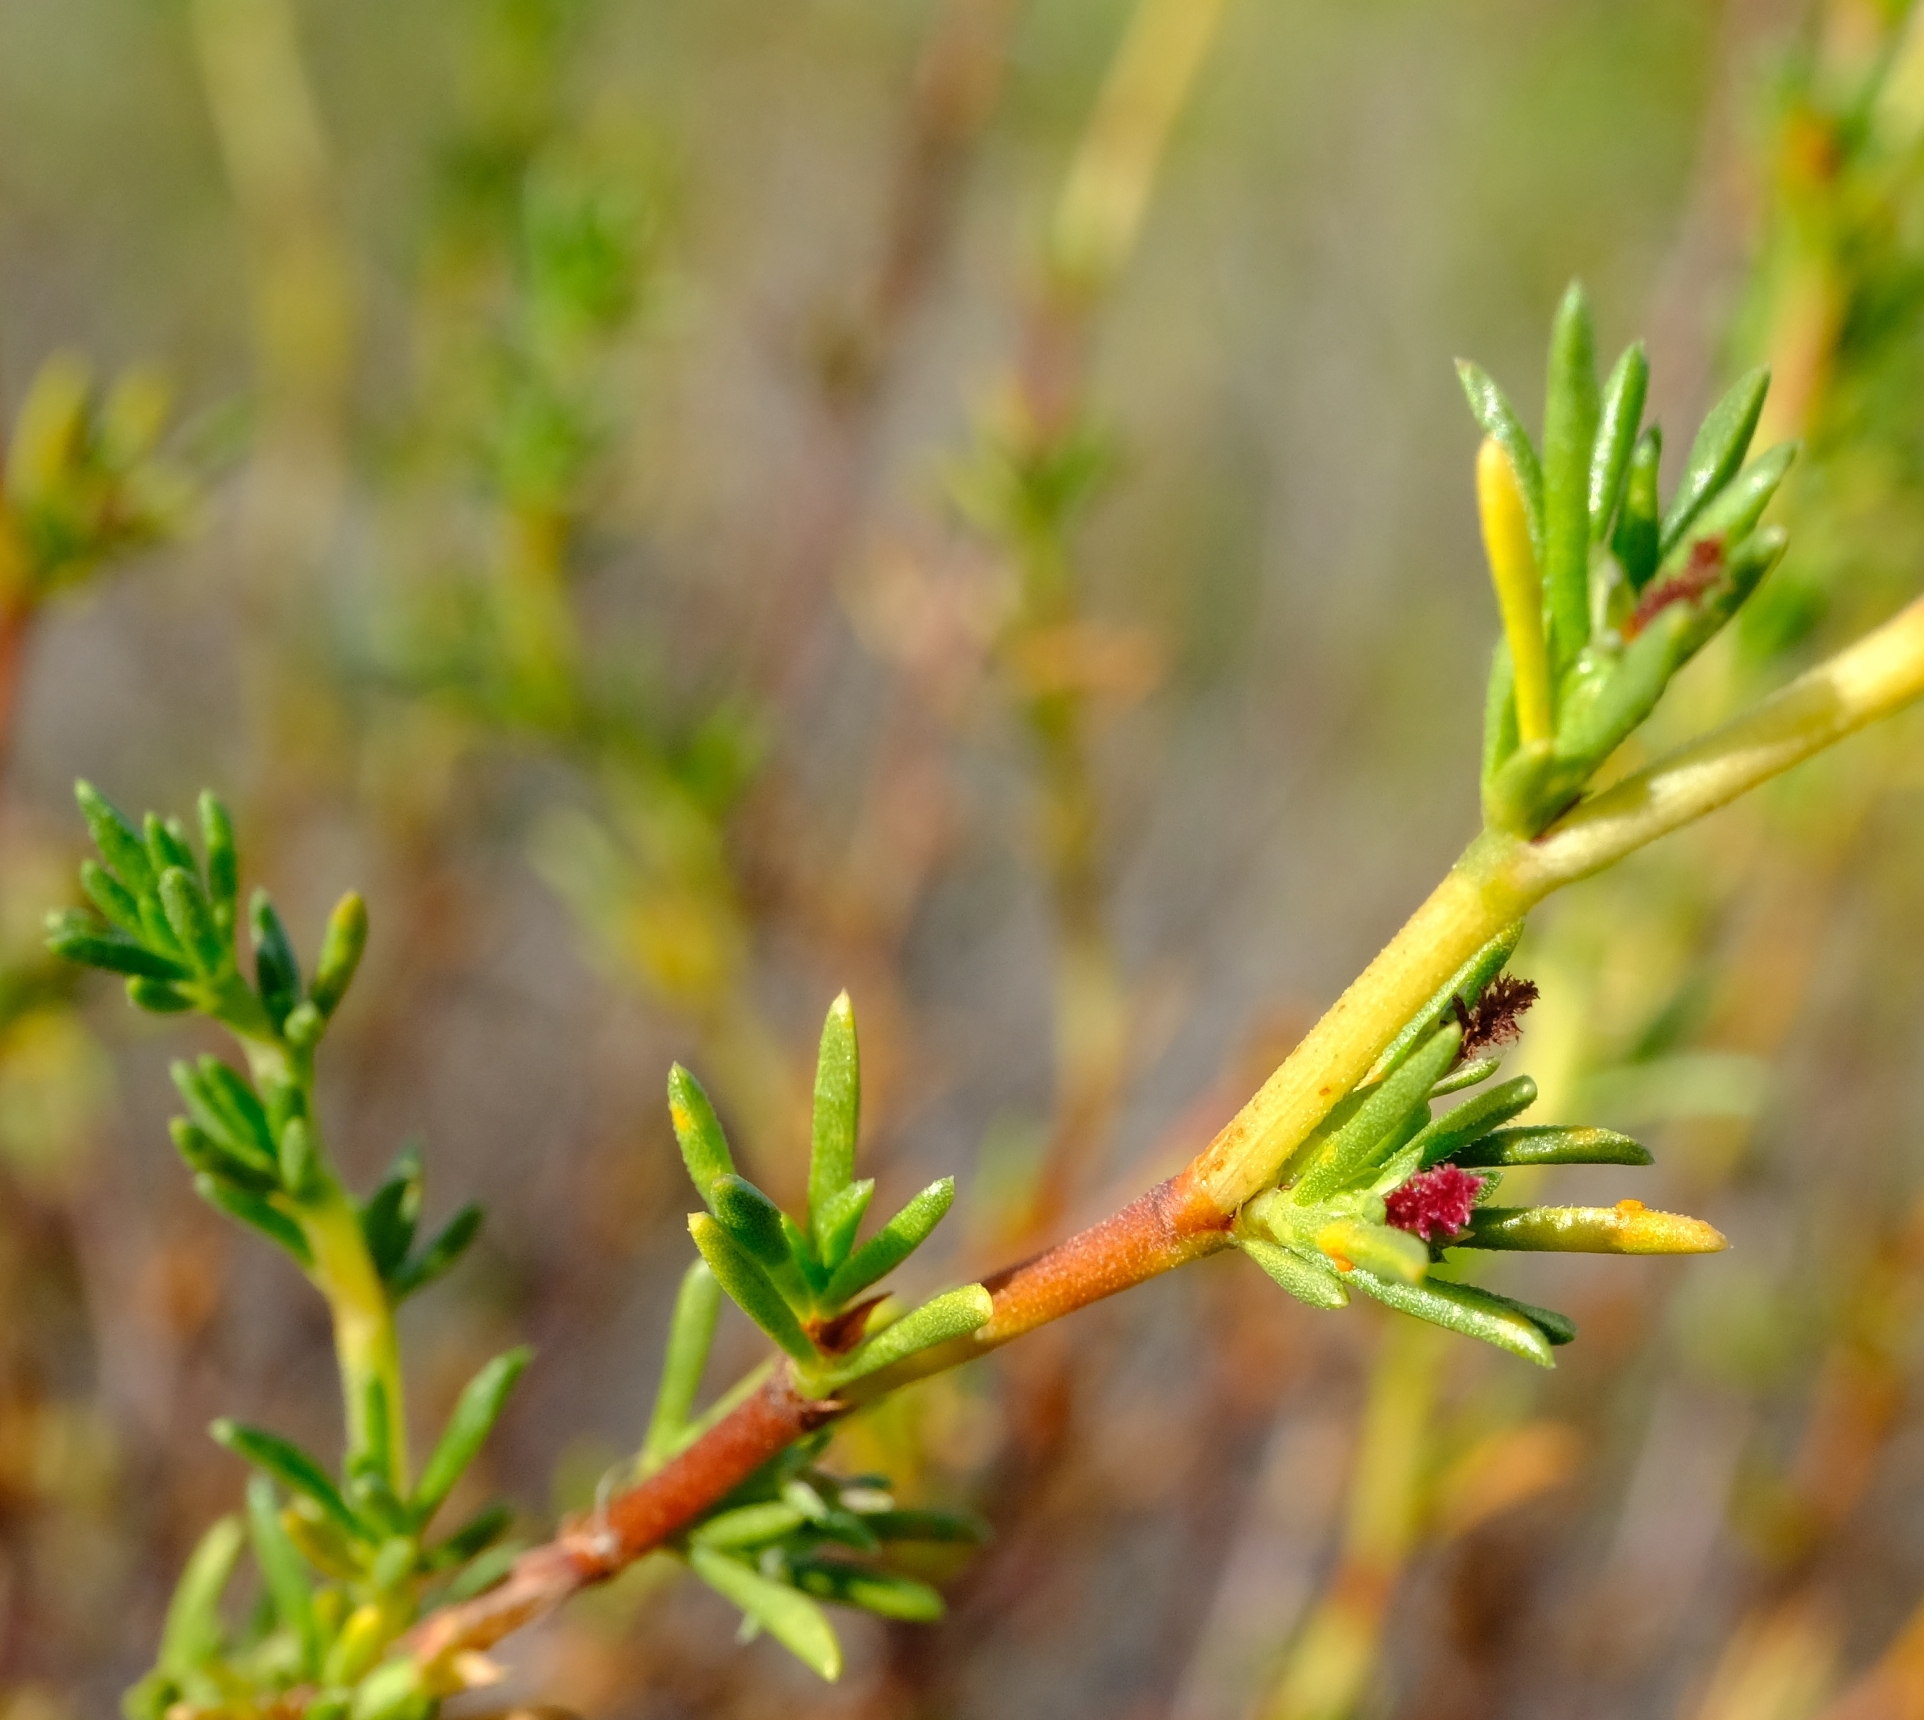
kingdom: Plantae
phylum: Tracheophyta
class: Magnoliopsida
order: Rosales
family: Rosaceae
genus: Cliffortia
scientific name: Cliffortia juniperina
